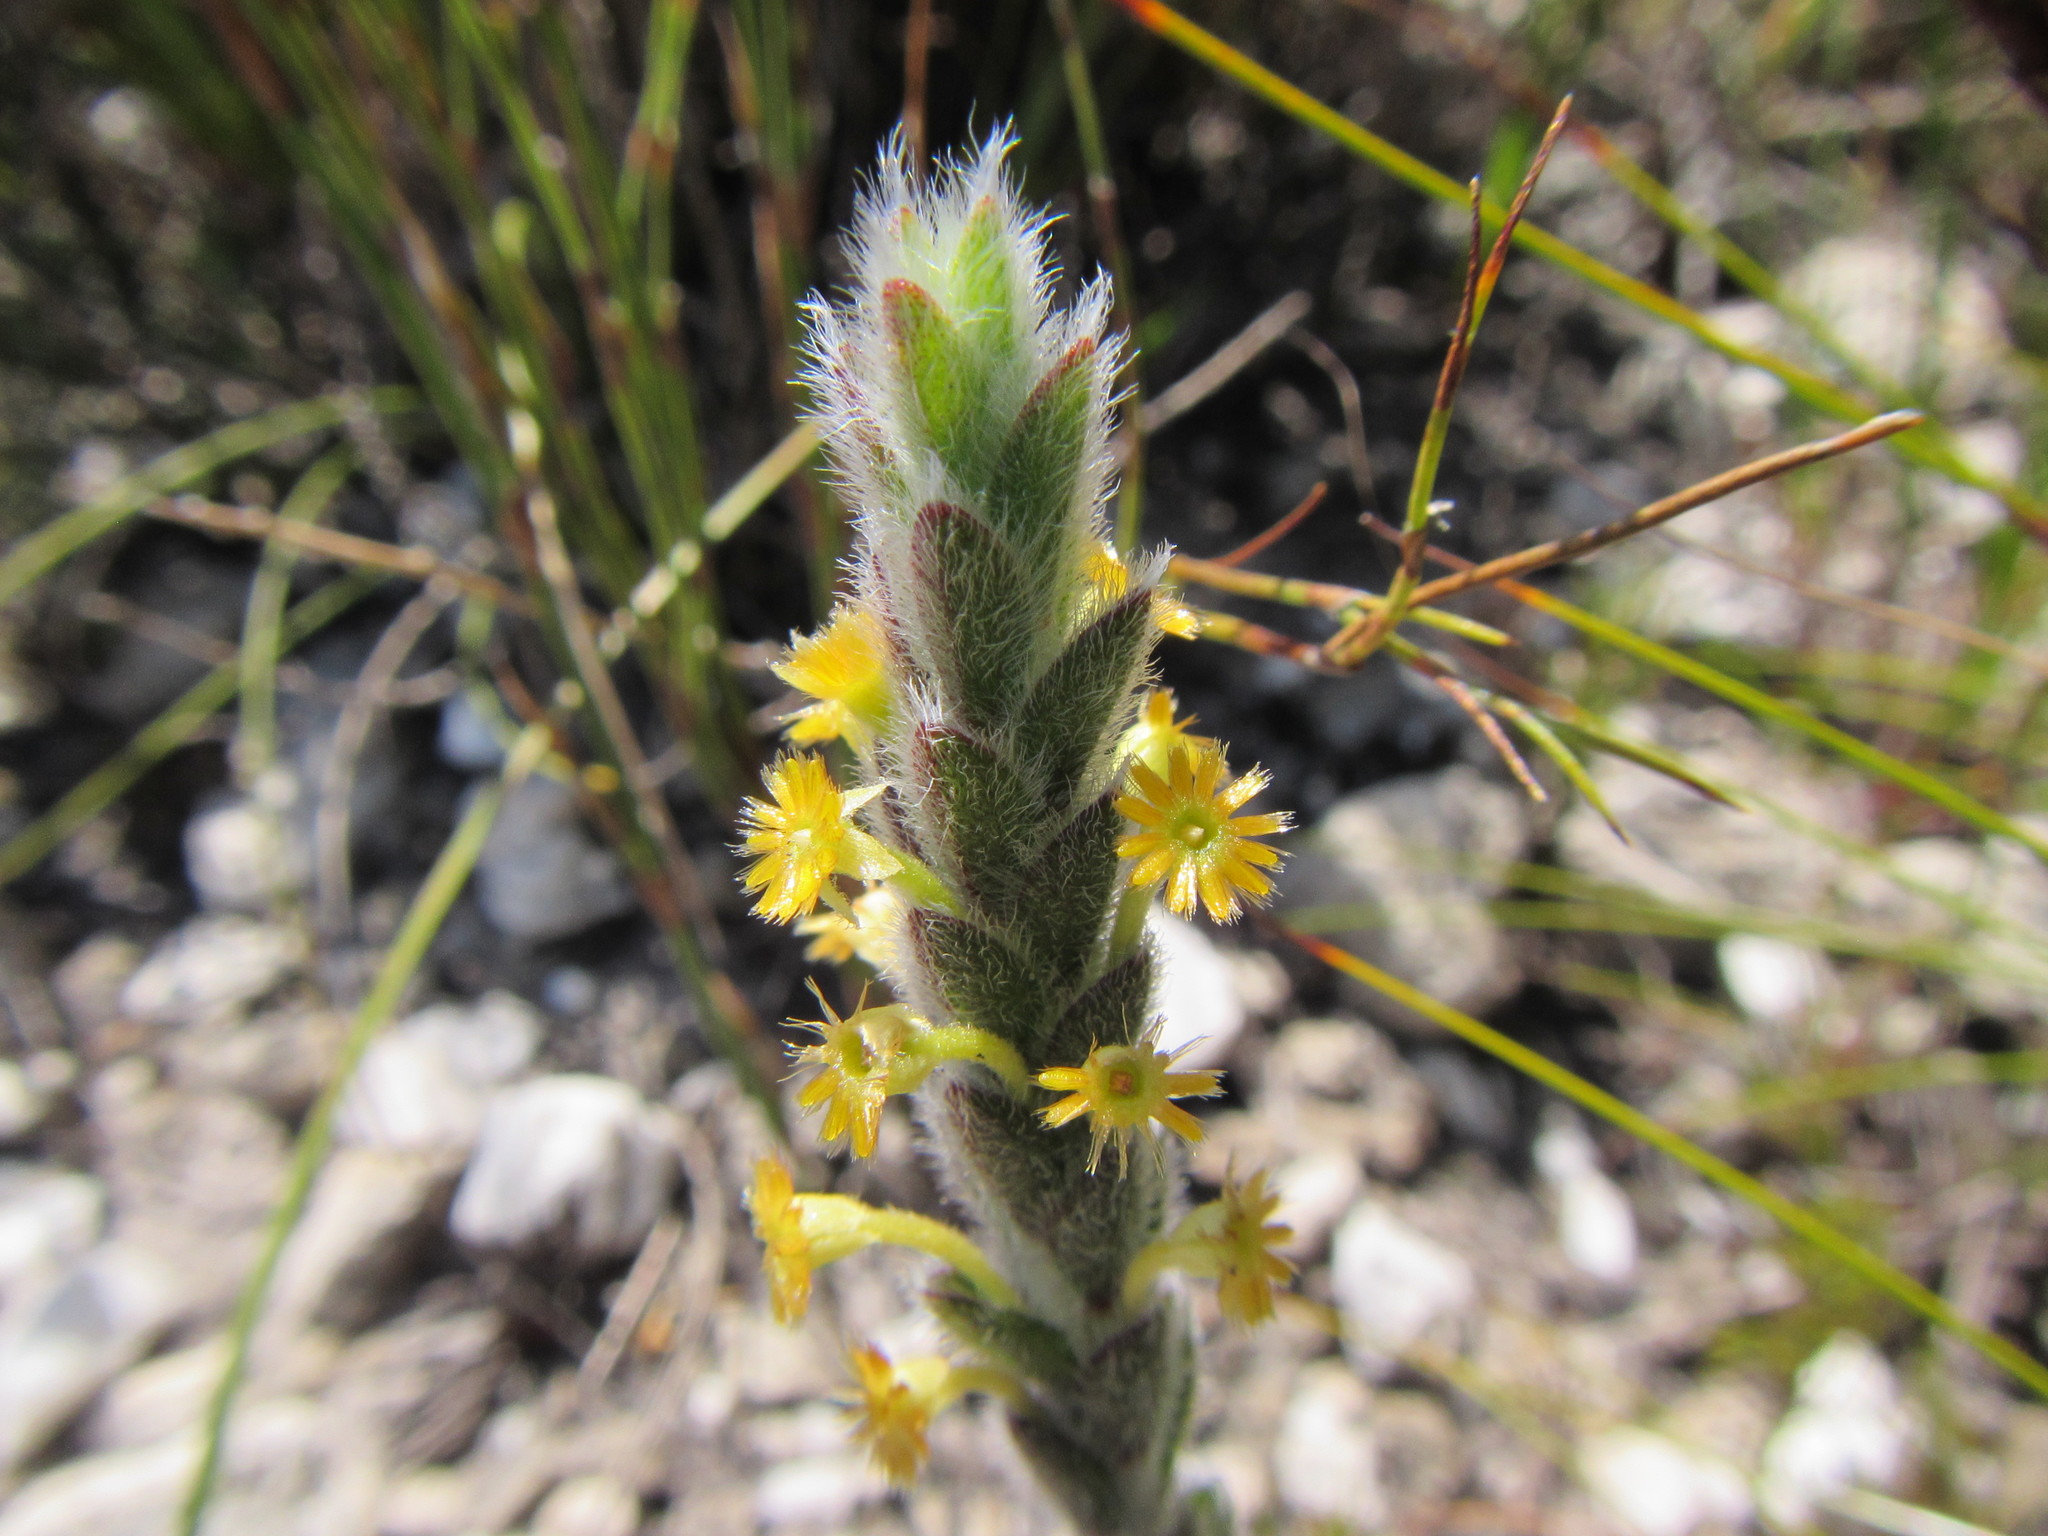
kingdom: Plantae
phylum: Tracheophyta
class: Magnoliopsida
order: Malvales
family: Thymelaeaceae
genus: Struthiola
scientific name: Struthiola tomentosa
